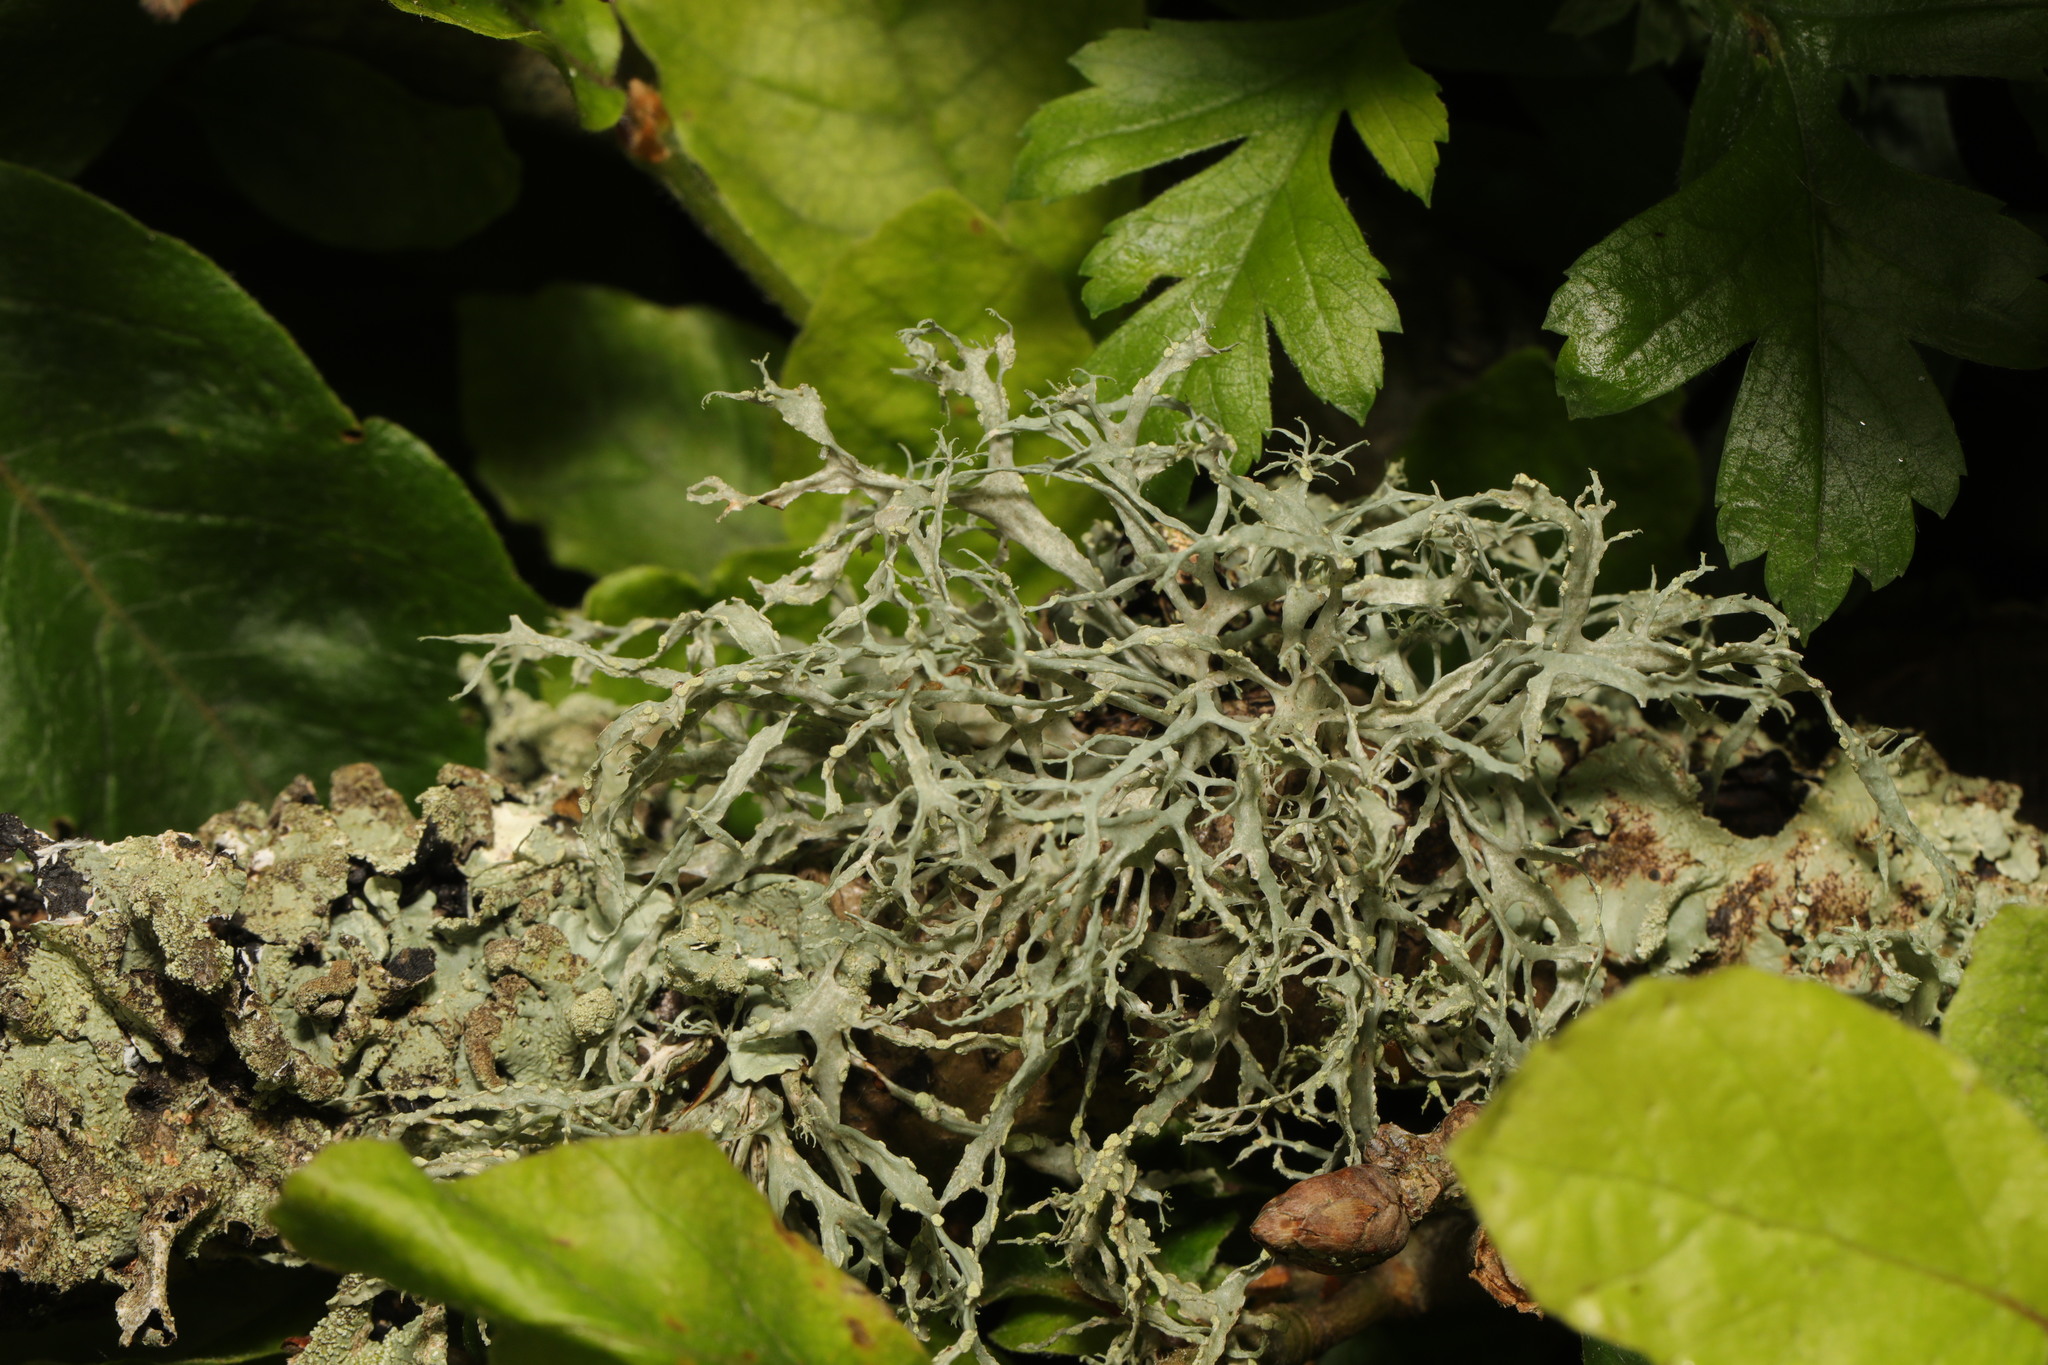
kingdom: Fungi
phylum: Ascomycota
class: Lecanoromycetes
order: Lecanorales
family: Ramalinaceae
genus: Ramalina
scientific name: Ramalina farinacea
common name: Farinose cartilage lichen
